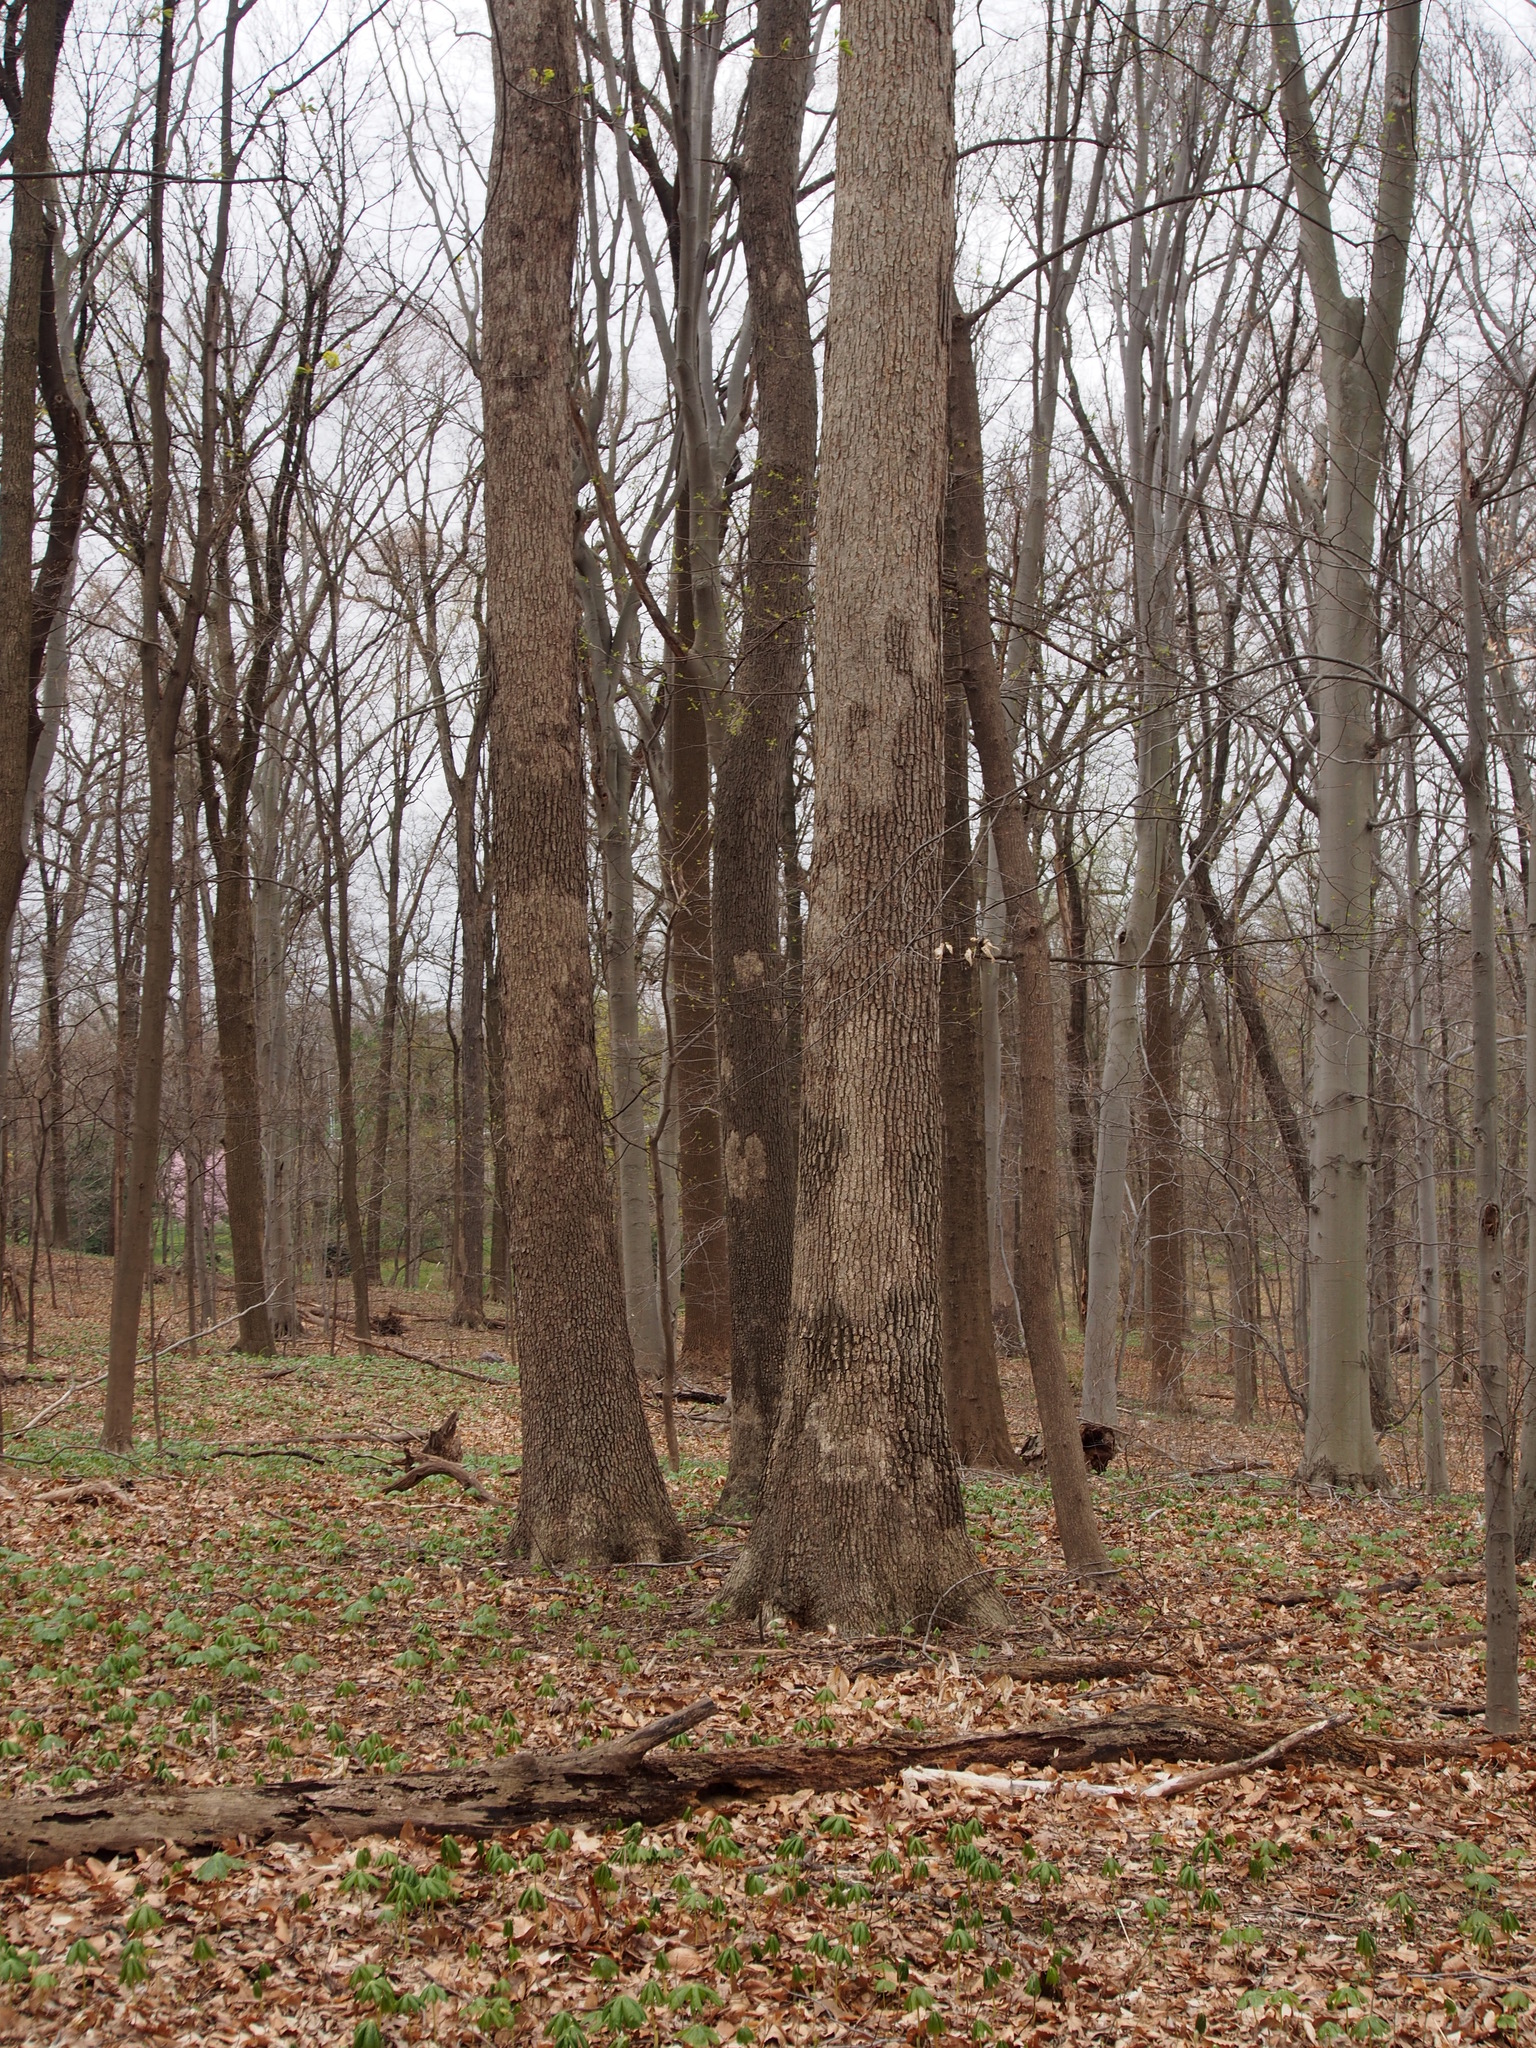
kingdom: Plantae
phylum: Tracheophyta
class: Magnoliopsida
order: Fagales
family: Fagaceae
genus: Quercus
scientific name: Quercus alba
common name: White oak
